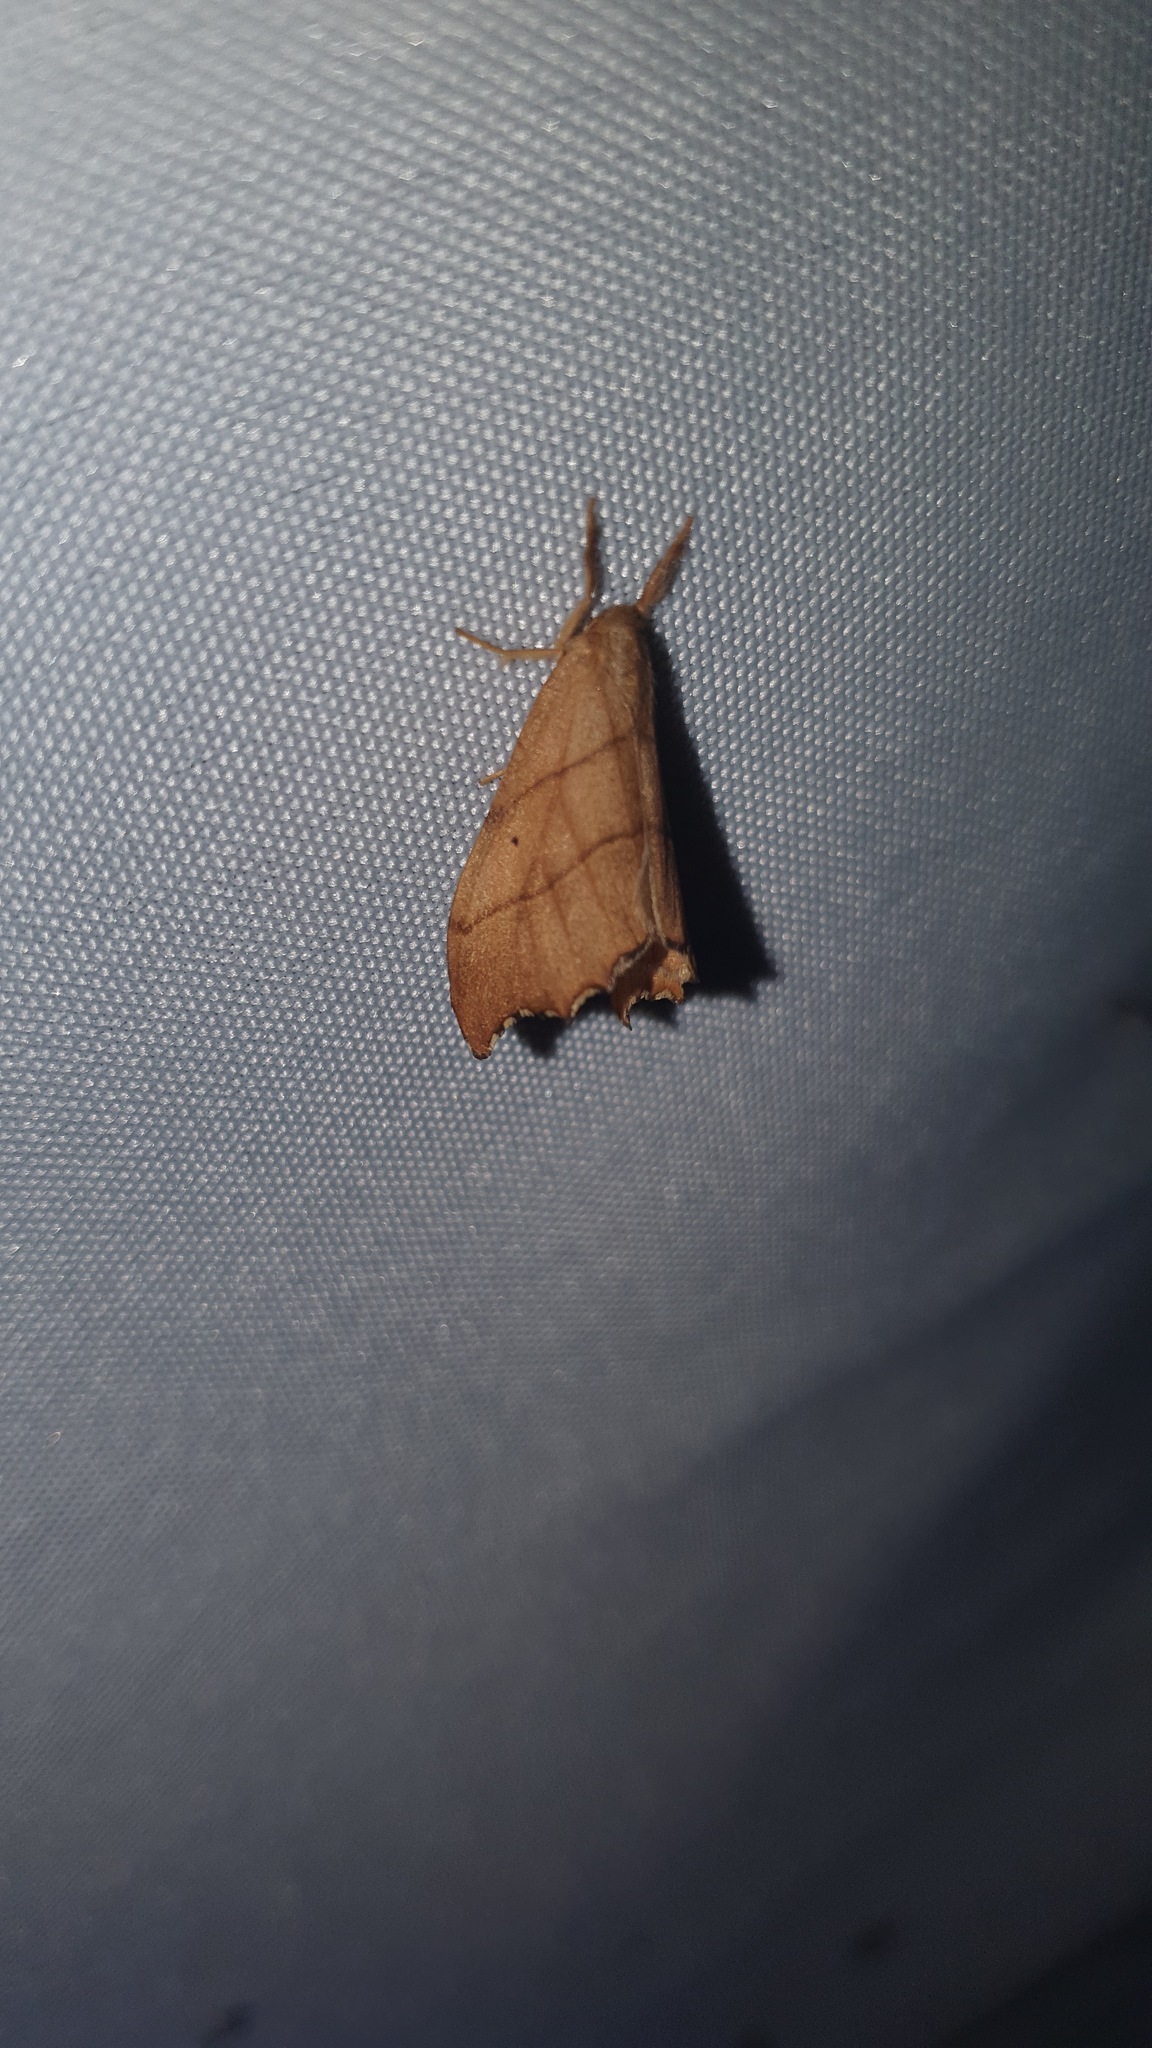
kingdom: Animalia
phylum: Arthropoda
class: Insecta
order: Lepidoptera
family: Drepanidae
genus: Falcaria
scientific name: Falcaria lacertinaria
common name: Scalloped hook-tip
